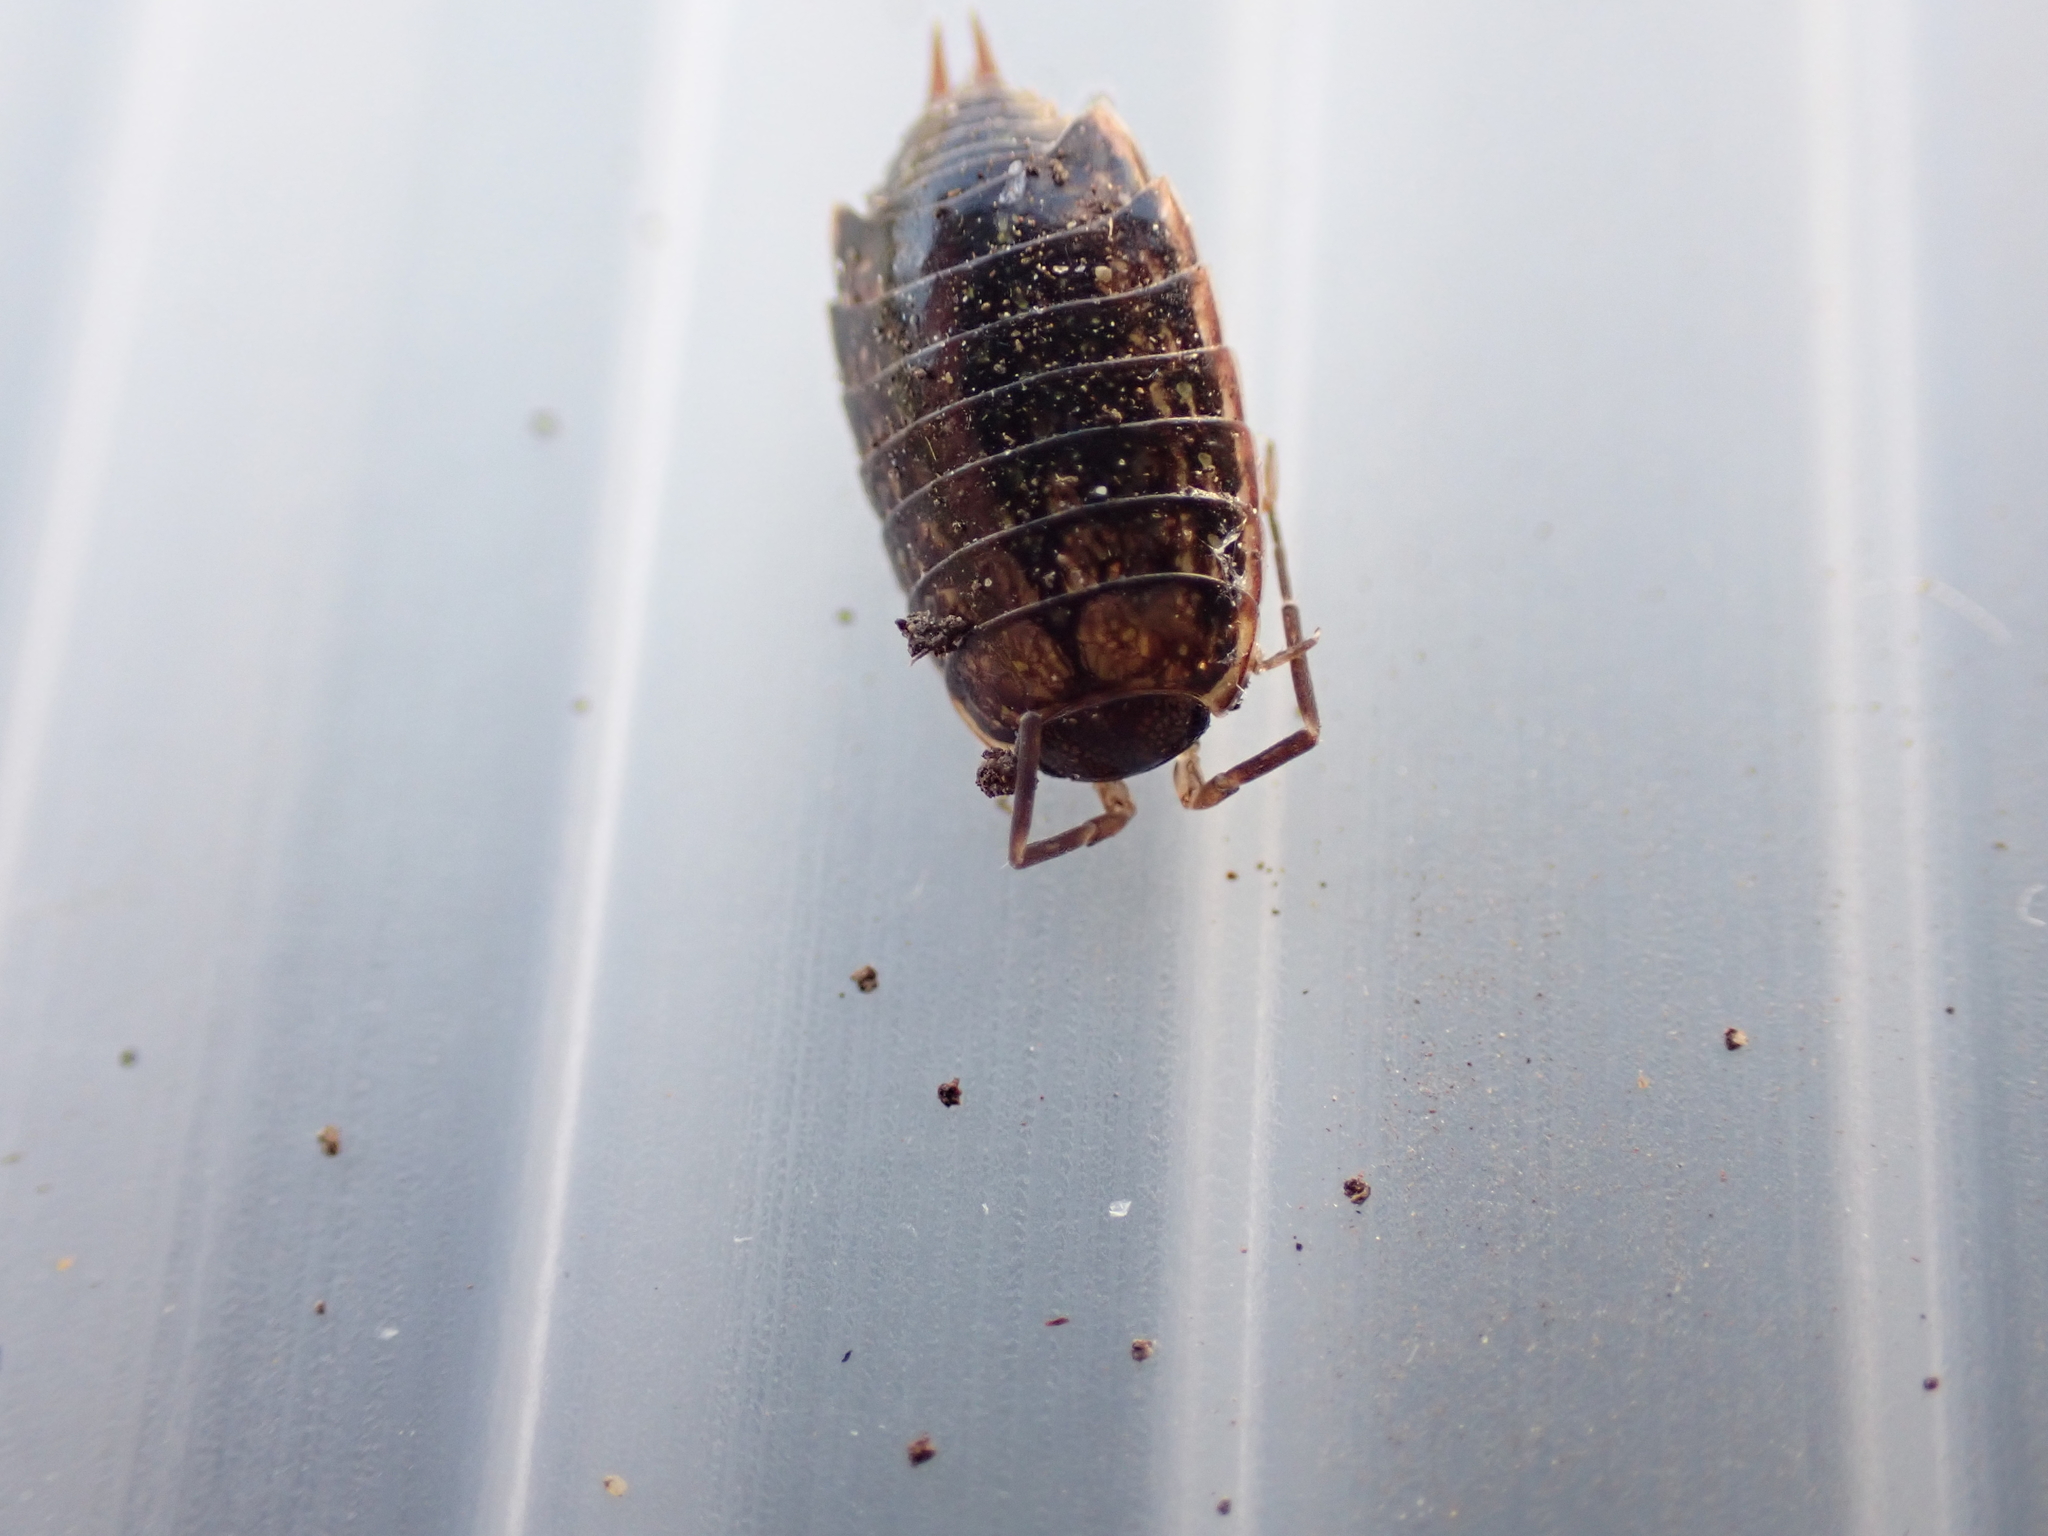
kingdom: Animalia
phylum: Arthropoda
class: Malacostraca
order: Isopoda
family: Philosciidae
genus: Philoscia
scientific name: Philoscia muscorum
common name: Common striped woodlouse
